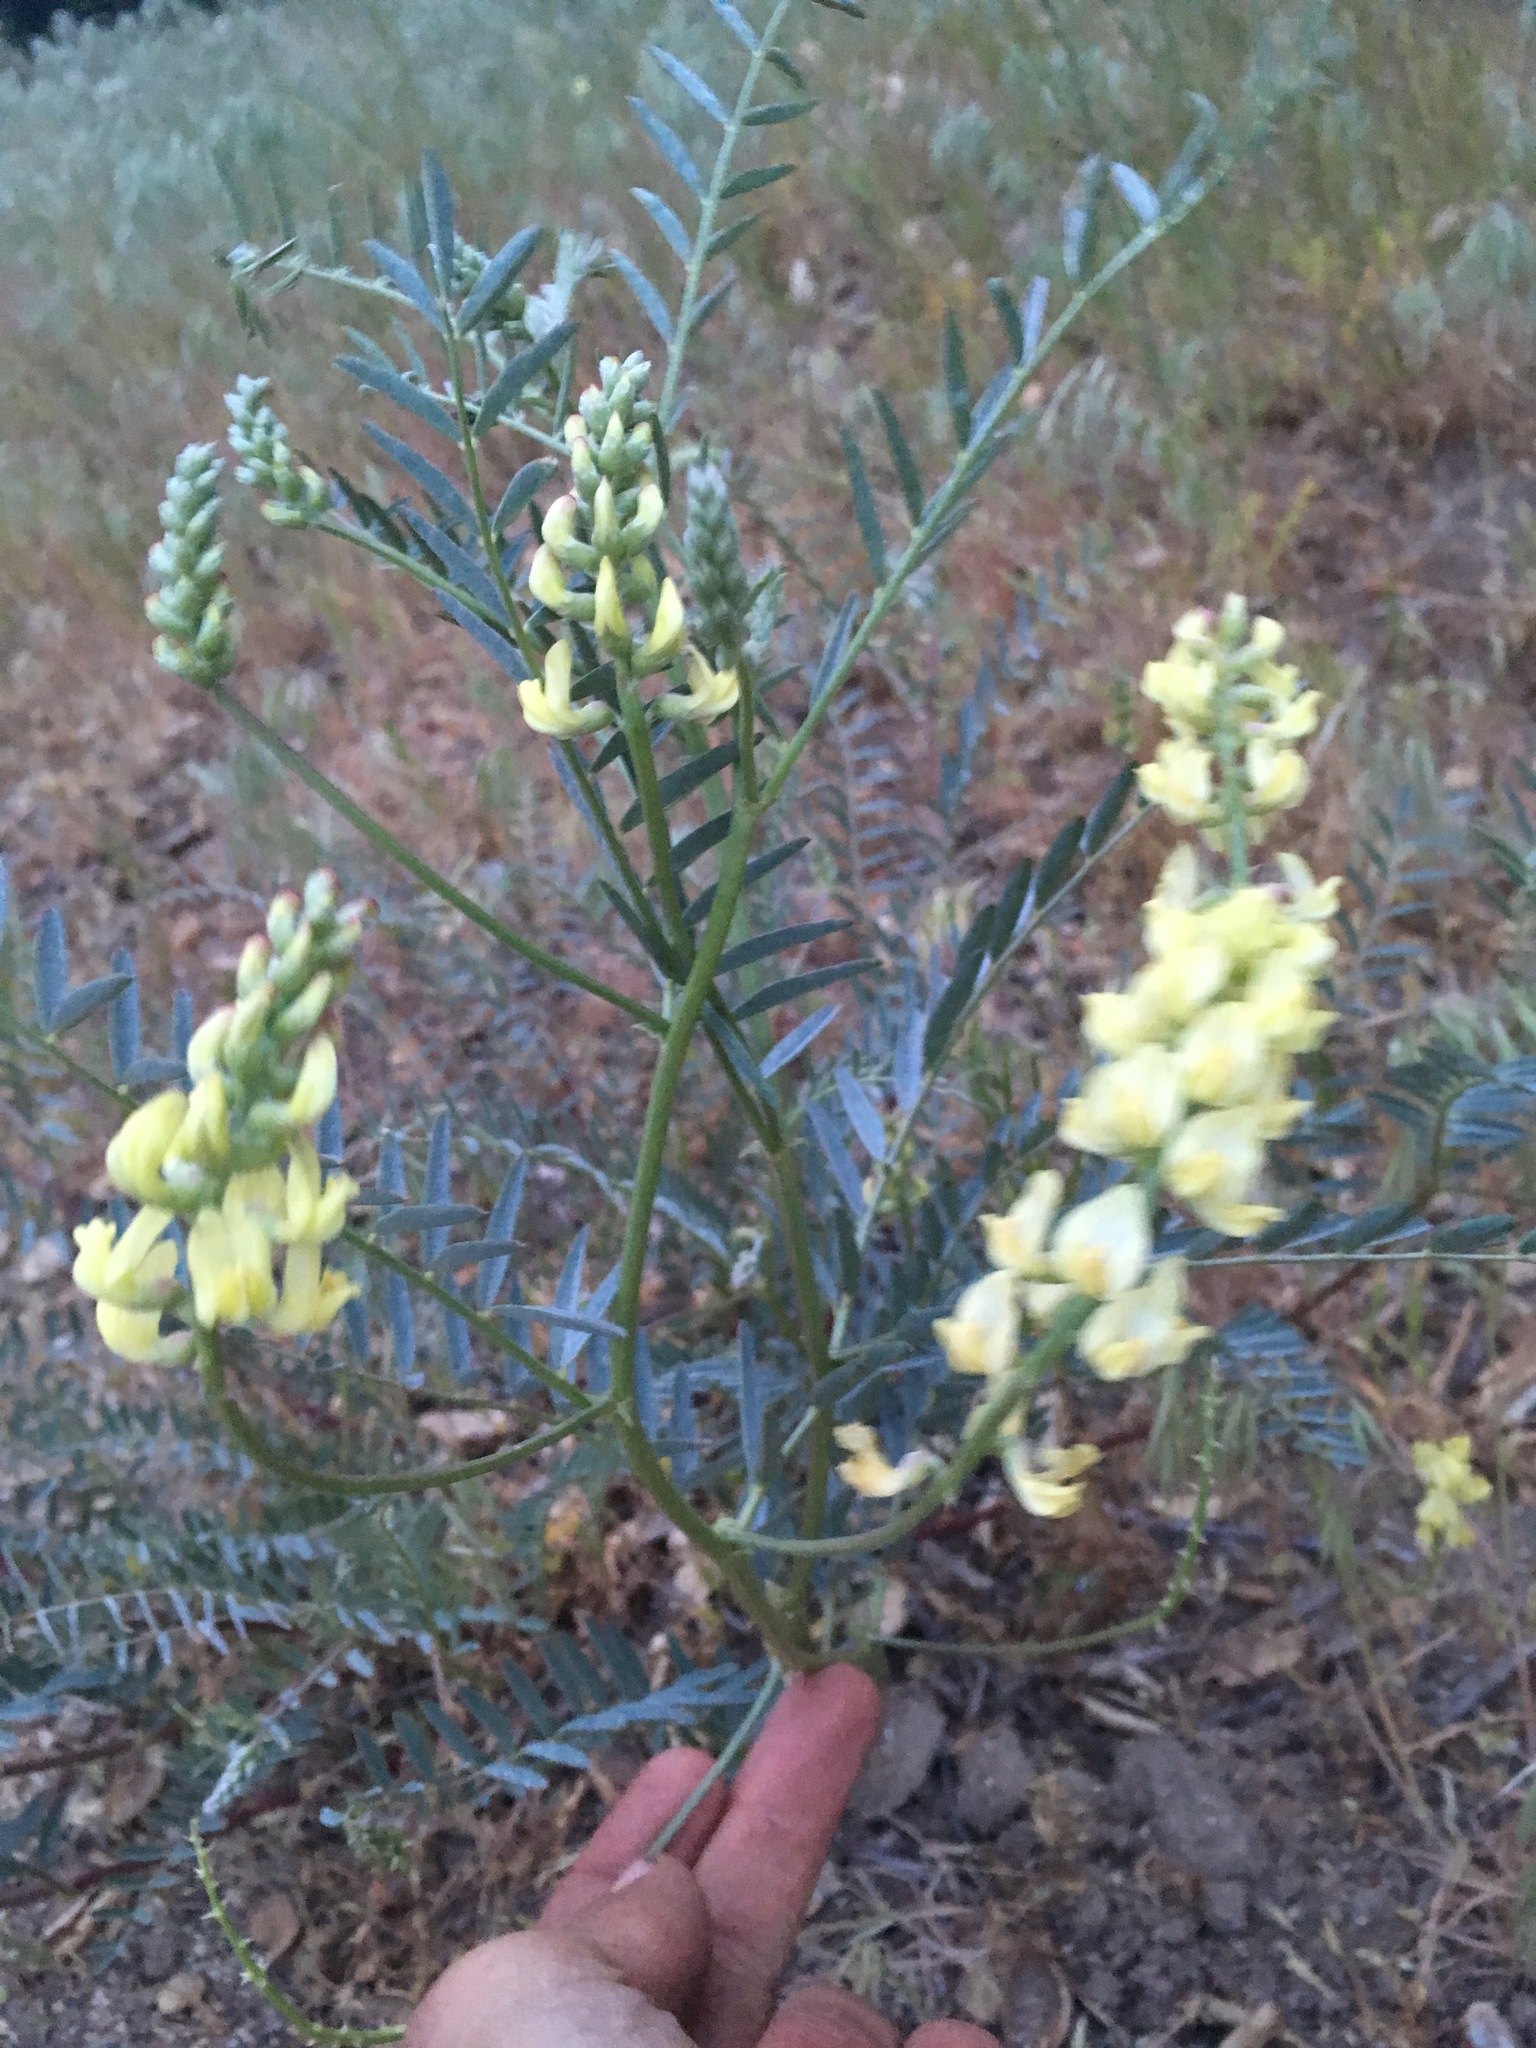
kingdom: Plantae
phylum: Tracheophyta
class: Magnoliopsida
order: Fabales
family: Fabaceae
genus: Astragalus
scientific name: Astragalus douglasii
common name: Jacumba milkvetch
